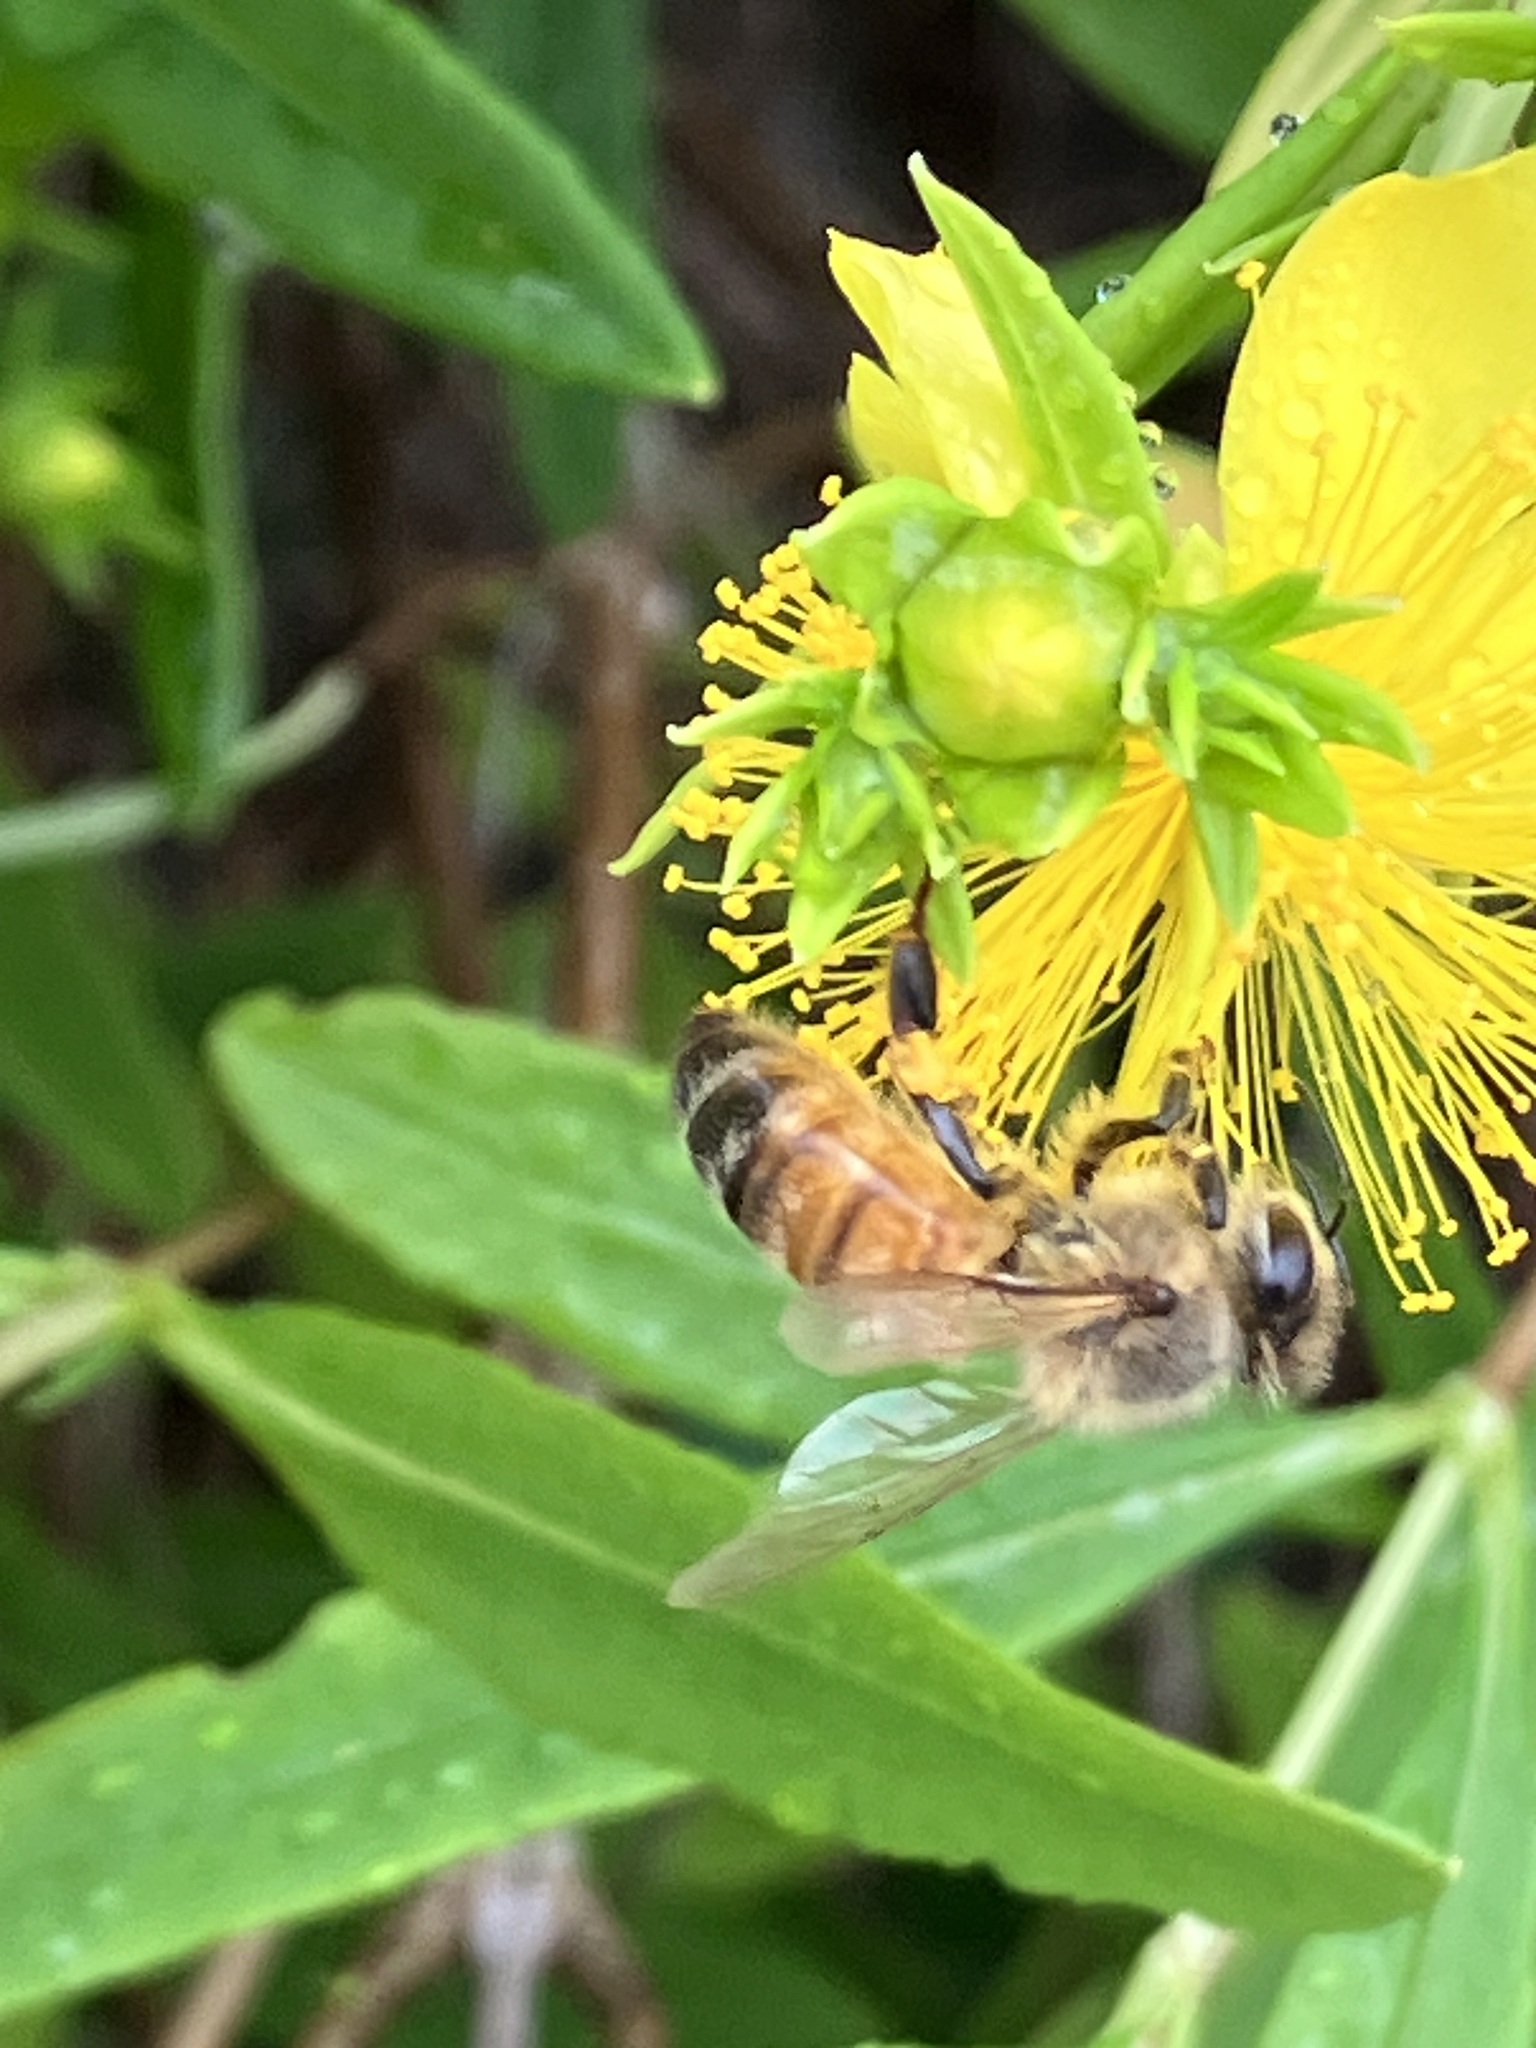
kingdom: Animalia
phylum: Arthropoda
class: Insecta
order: Hymenoptera
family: Apidae
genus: Apis
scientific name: Apis mellifera
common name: Honey bee
